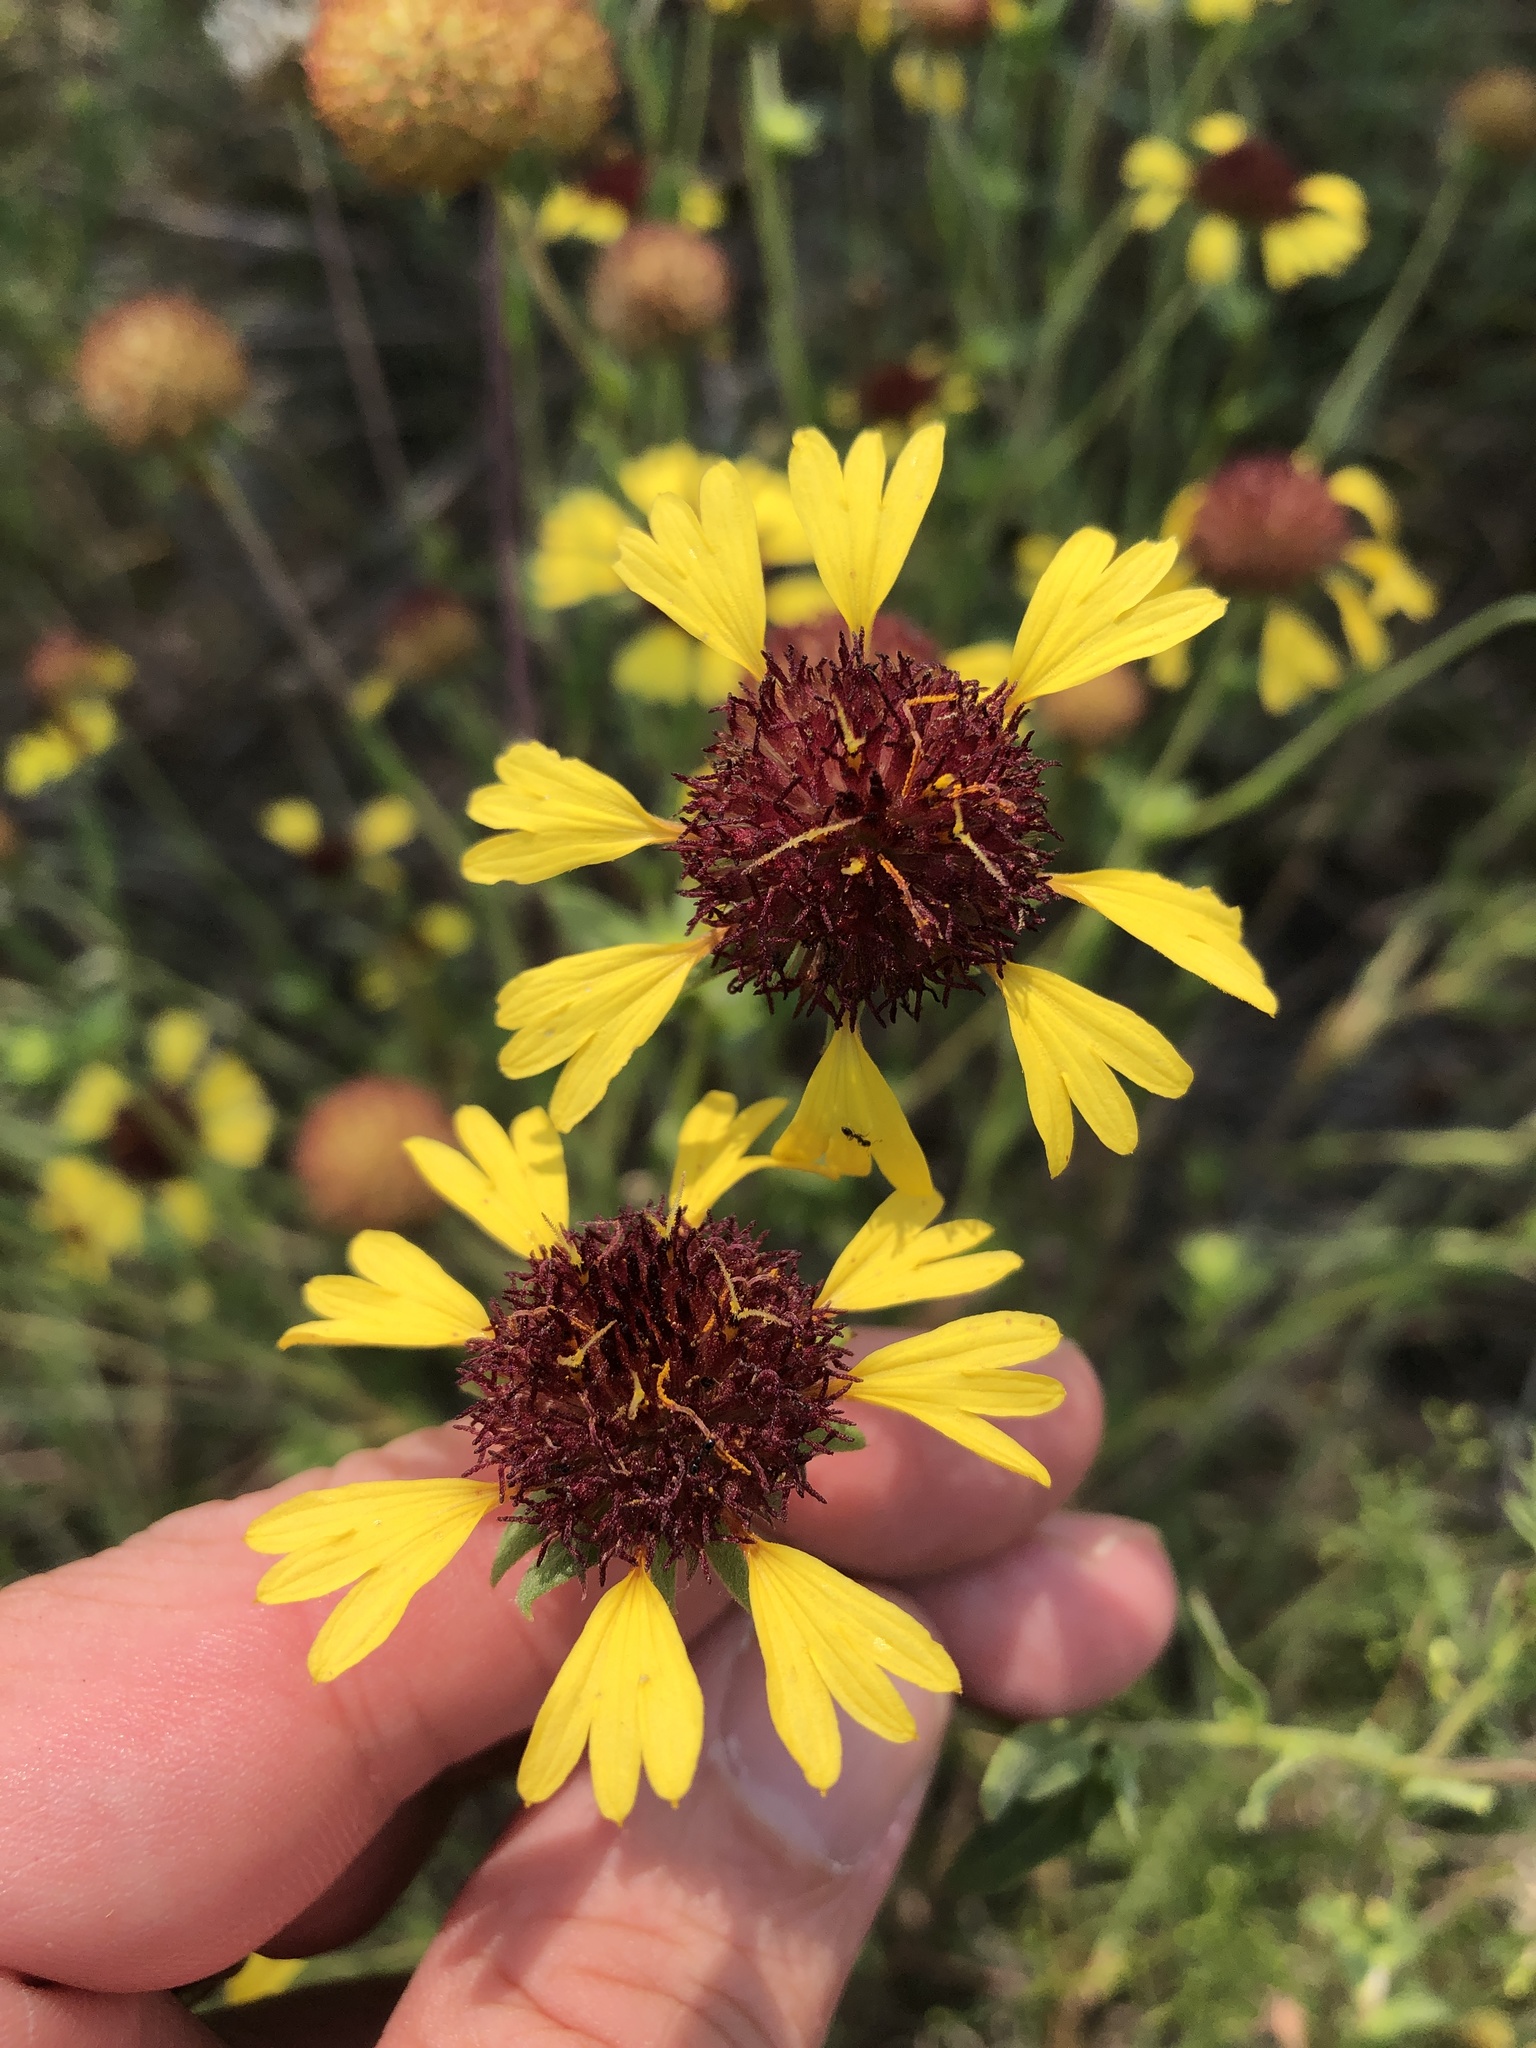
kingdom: Plantae
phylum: Tracheophyta
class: Magnoliopsida
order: Asterales
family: Asteraceae
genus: Gaillardia
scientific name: Gaillardia aestivalis
